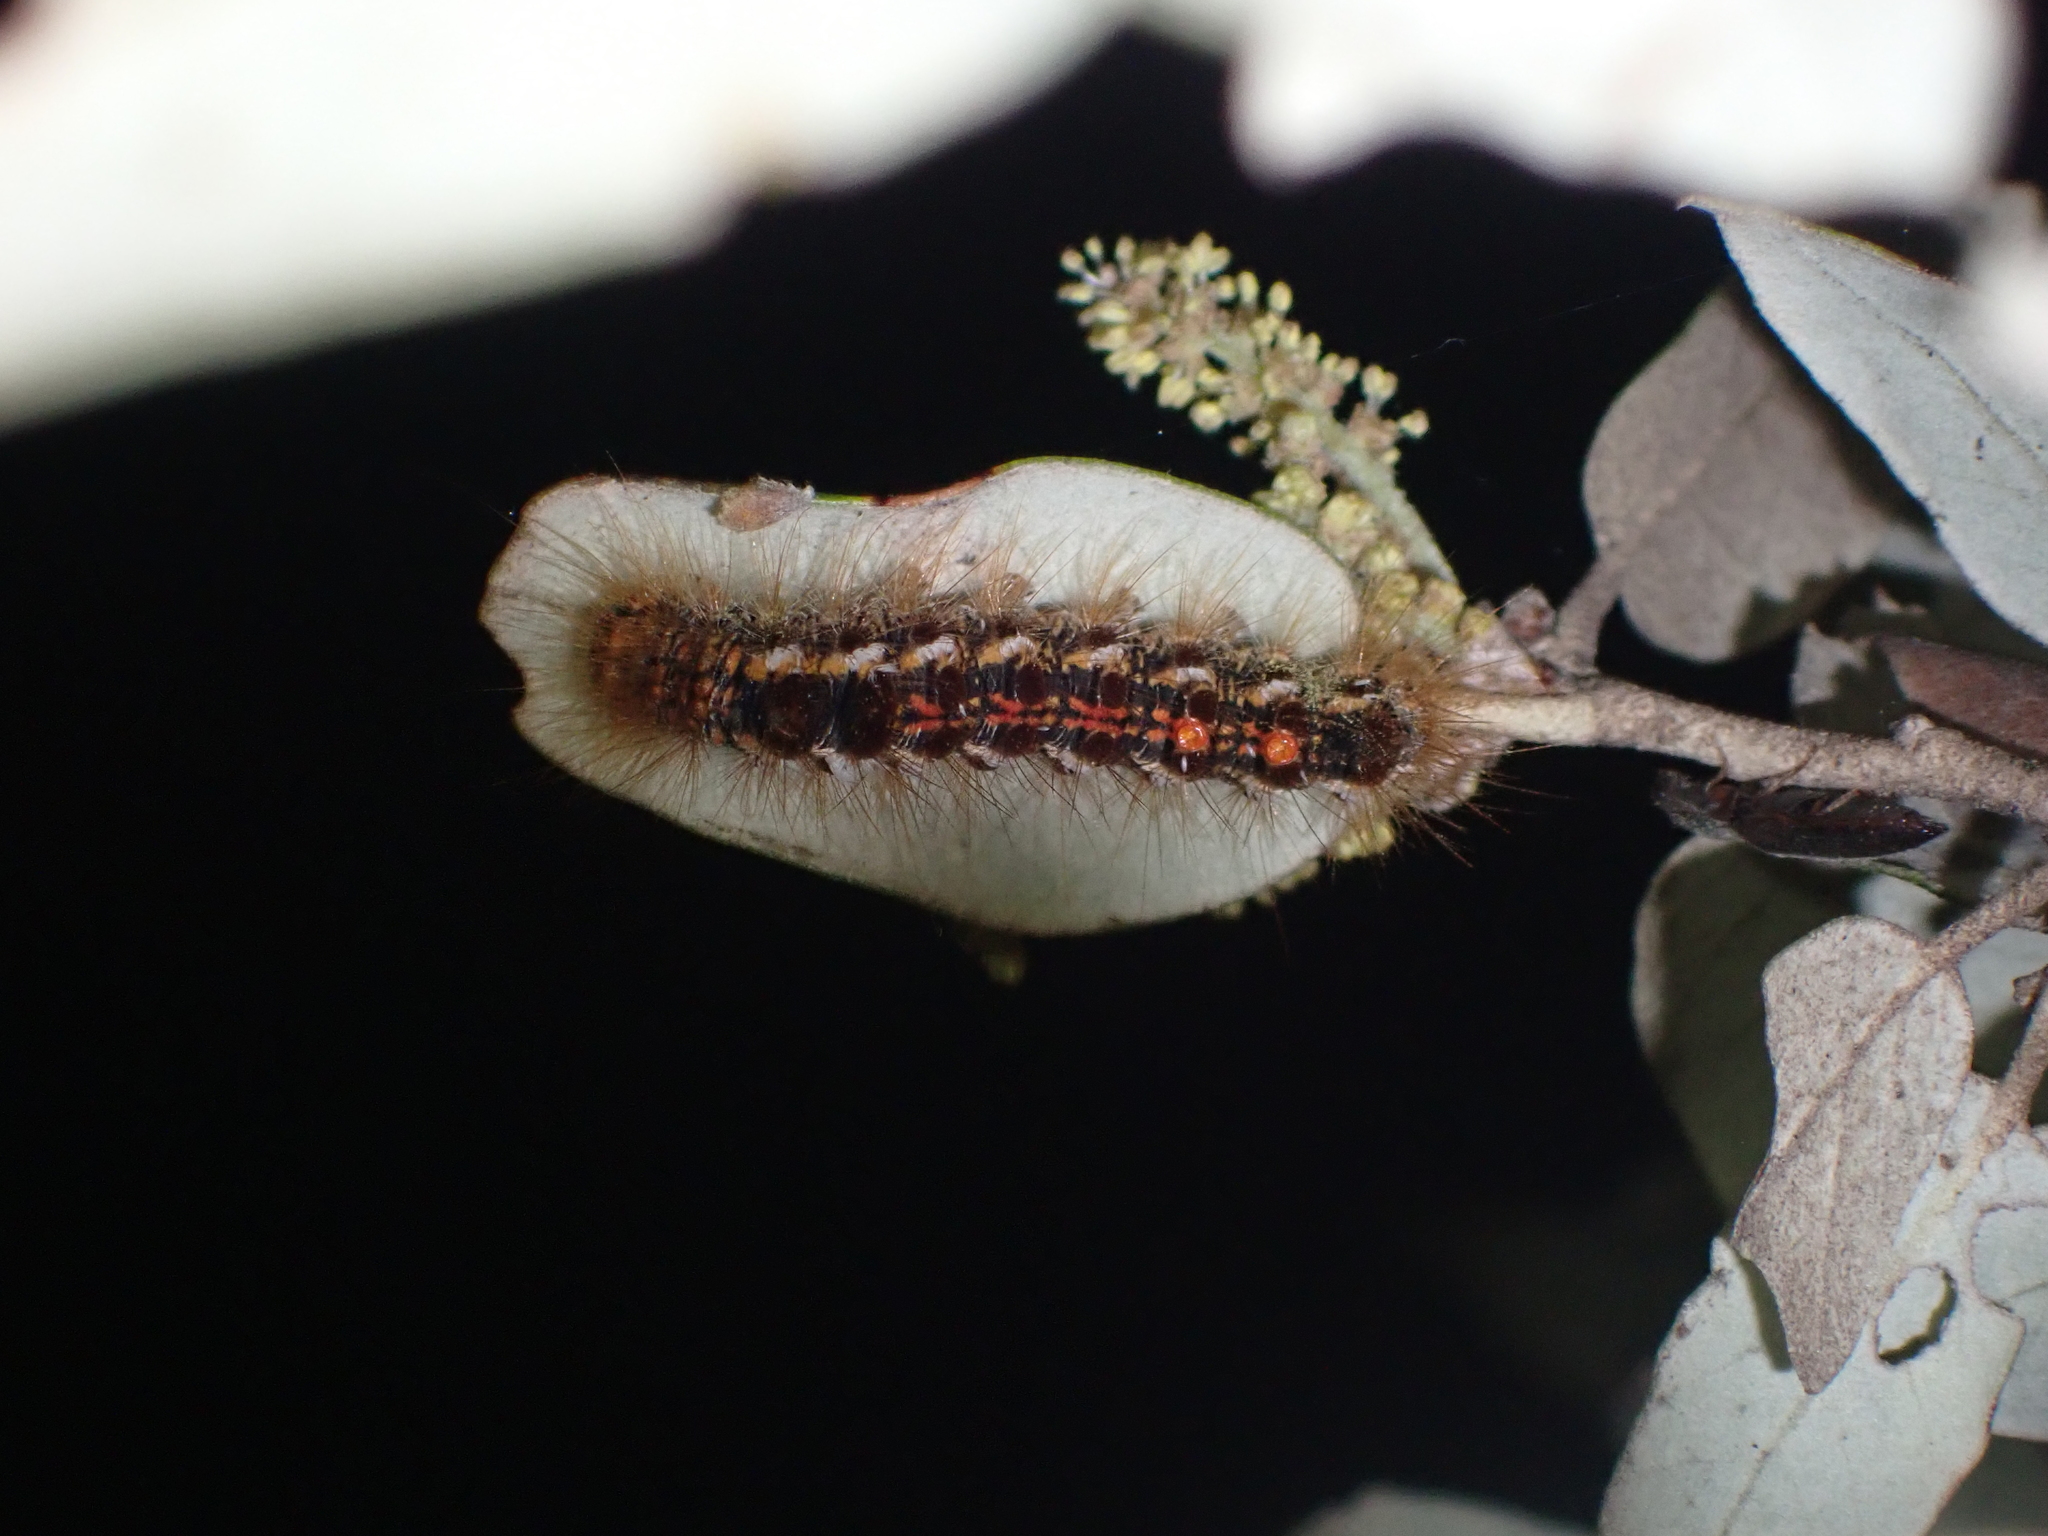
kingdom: Animalia
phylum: Arthropoda
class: Insecta
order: Lepidoptera
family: Erebidae
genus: Euproctis
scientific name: Euproctis chrysorrhoea
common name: Brown-tail
